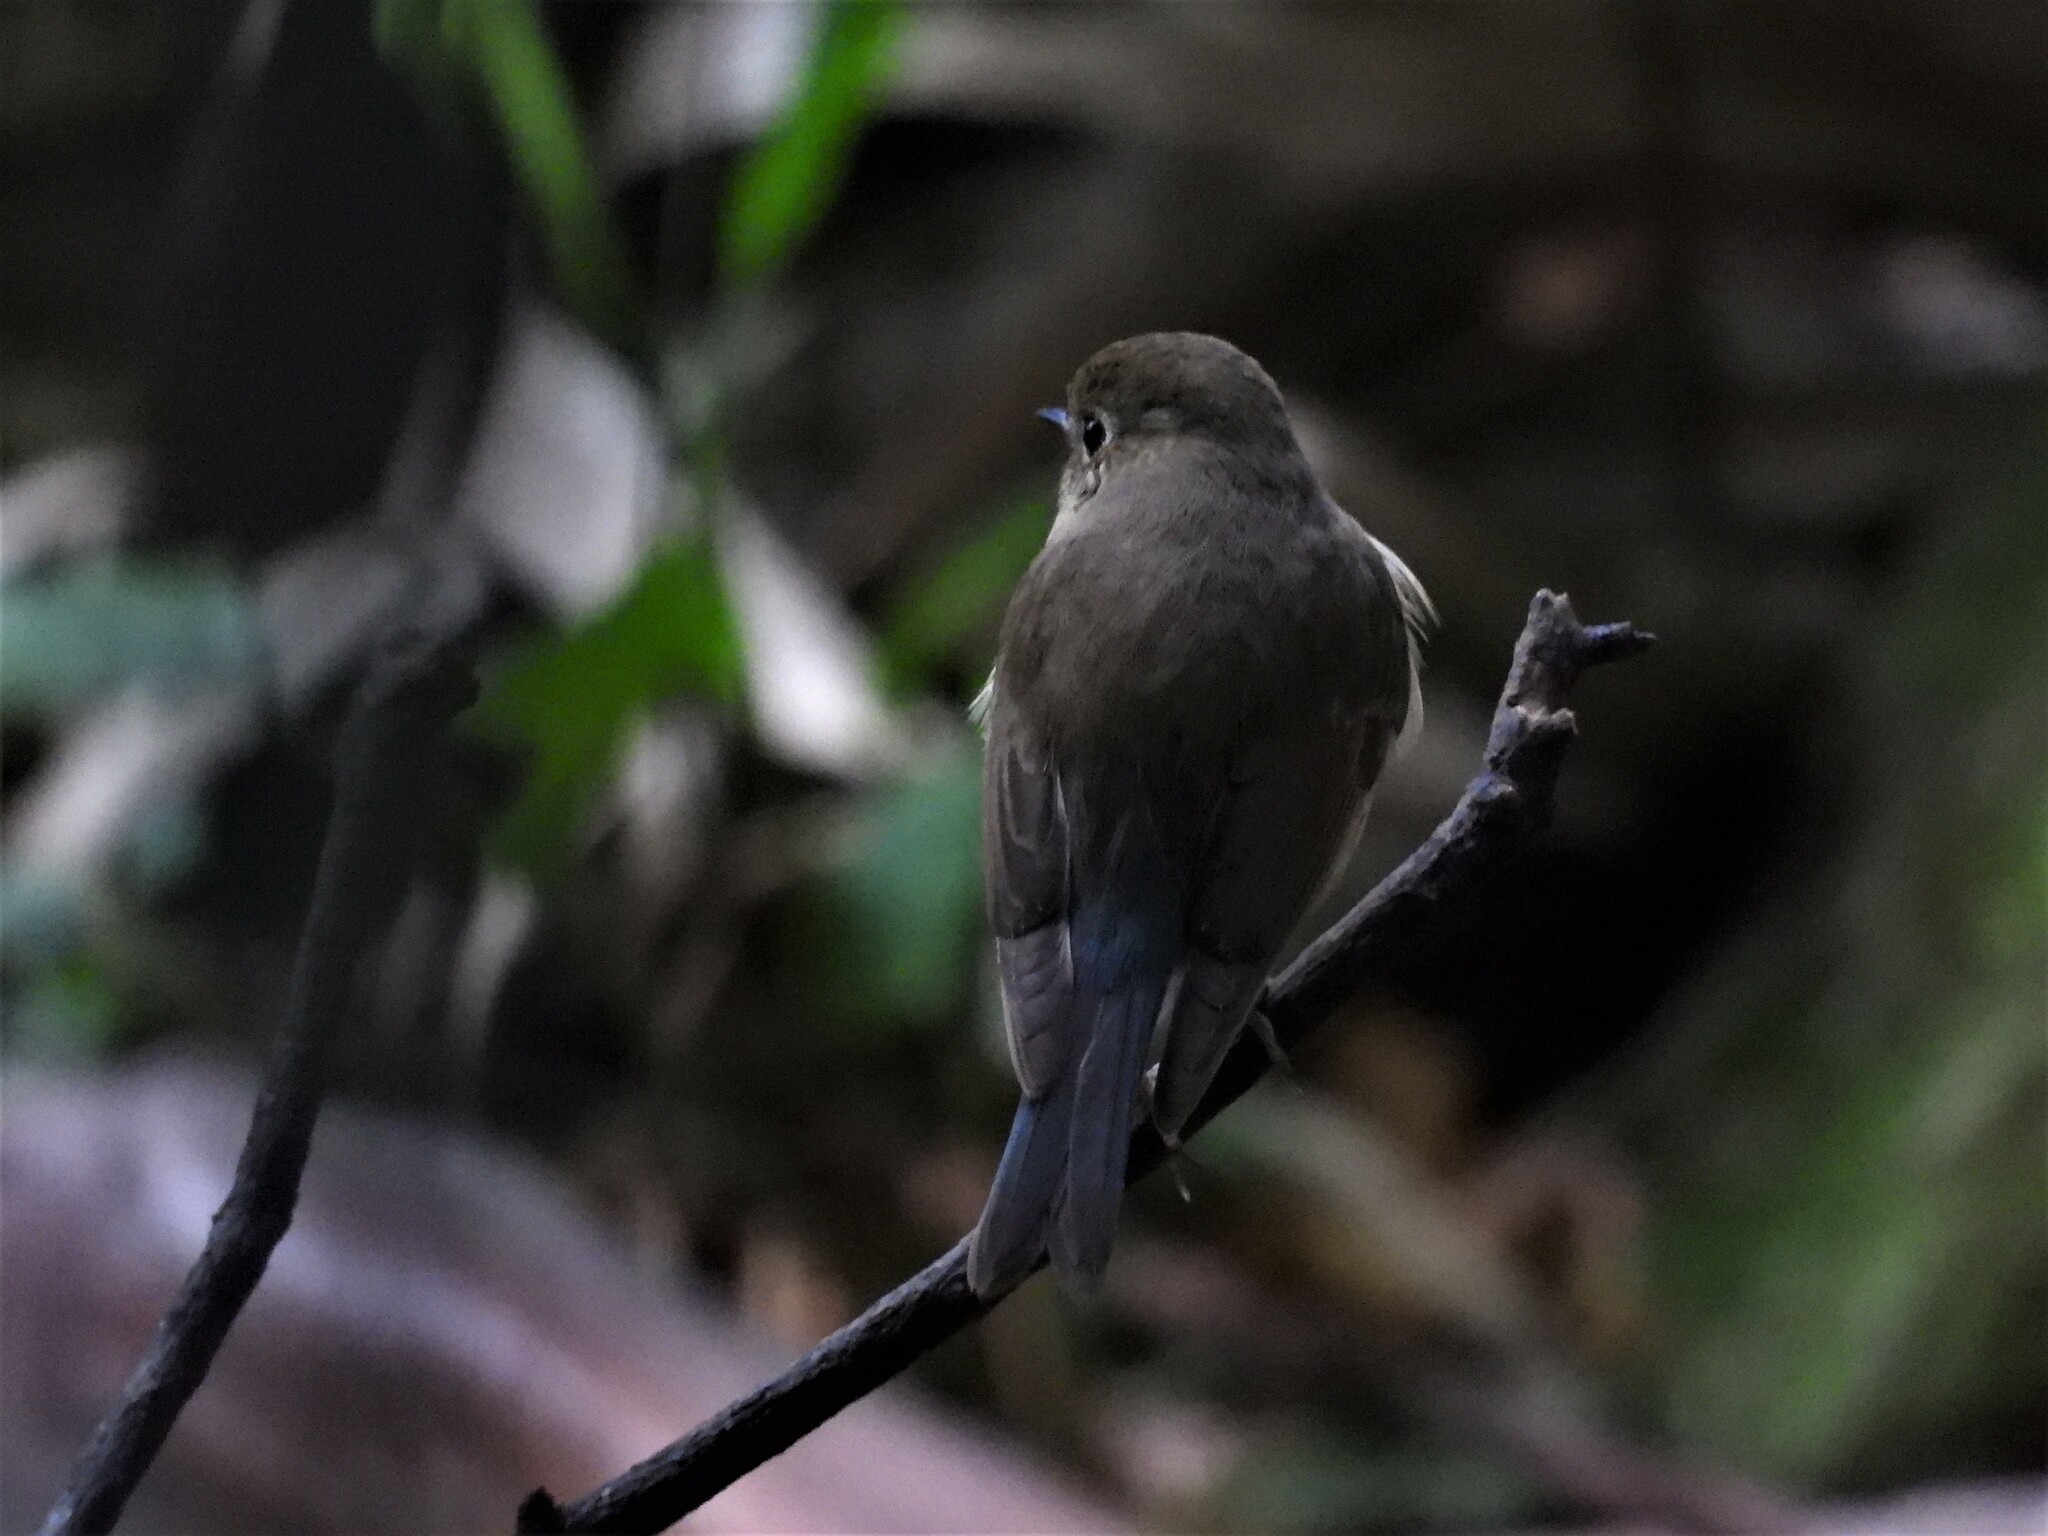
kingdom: Animalia
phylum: Chordata
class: Aves
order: Passeriformes
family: Muscicapidae
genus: Tarsiger
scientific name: Tarsiger cyanurus
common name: Red-flanked bluetail
